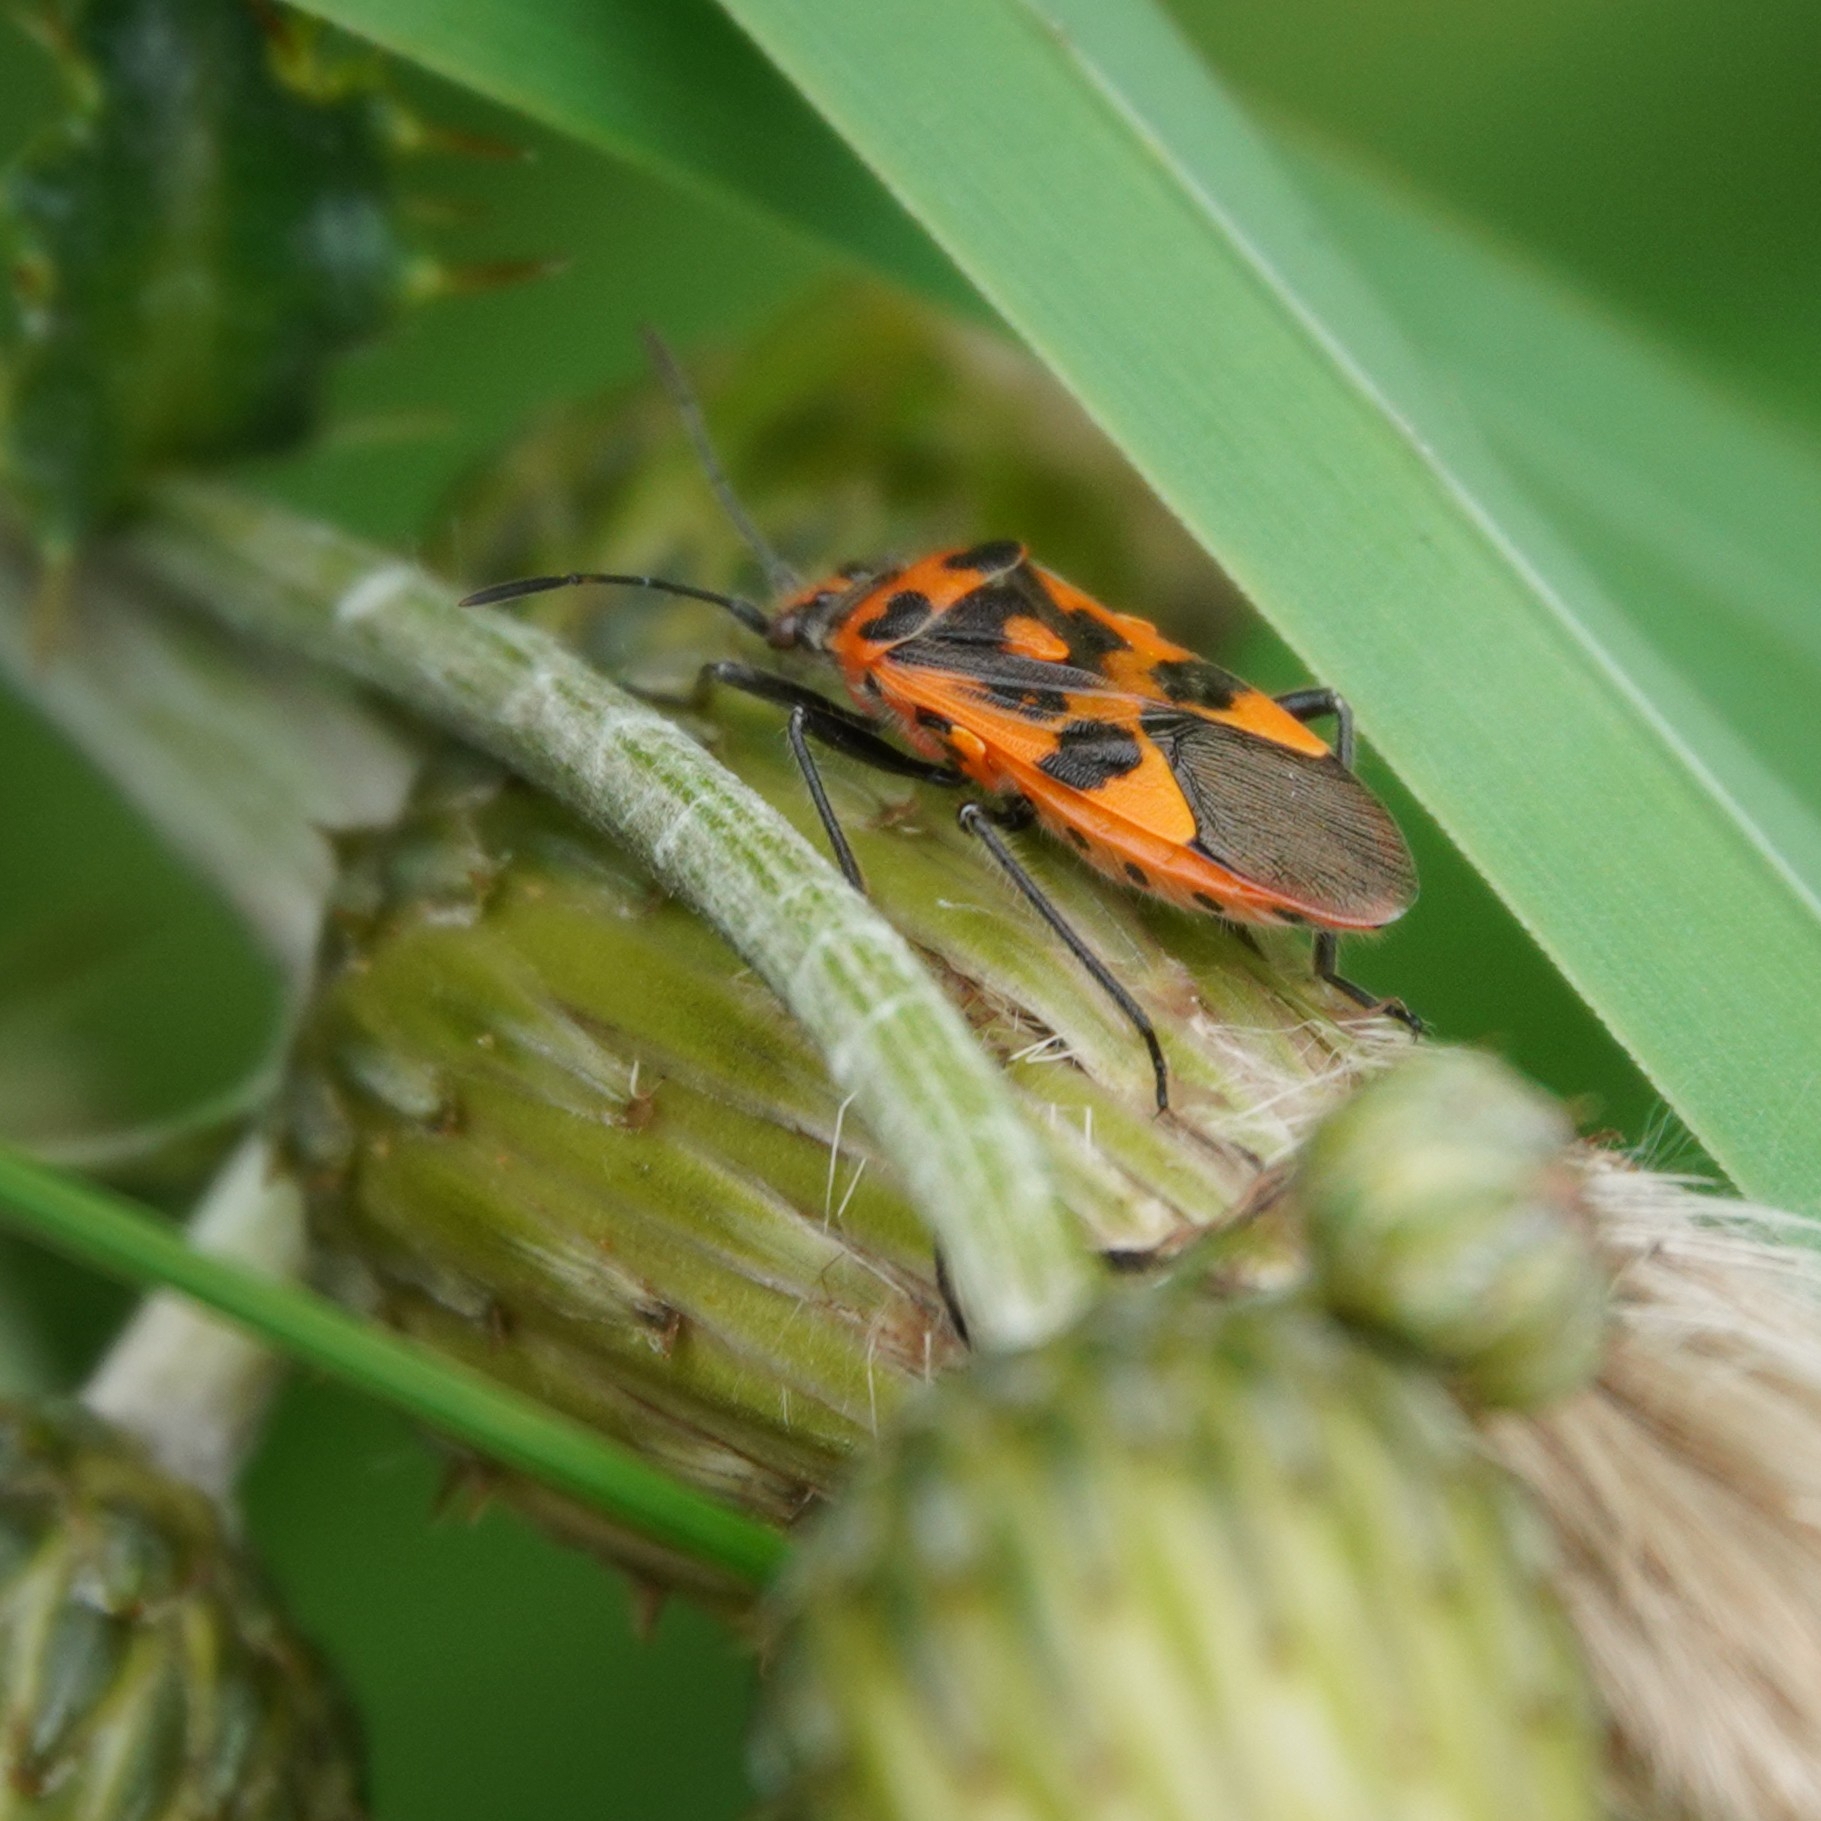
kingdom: Animalia
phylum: Arthropoda
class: Insecta
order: Hemiptera
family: Rhopalidae
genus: Corizus
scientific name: Corizus hyoscyami
